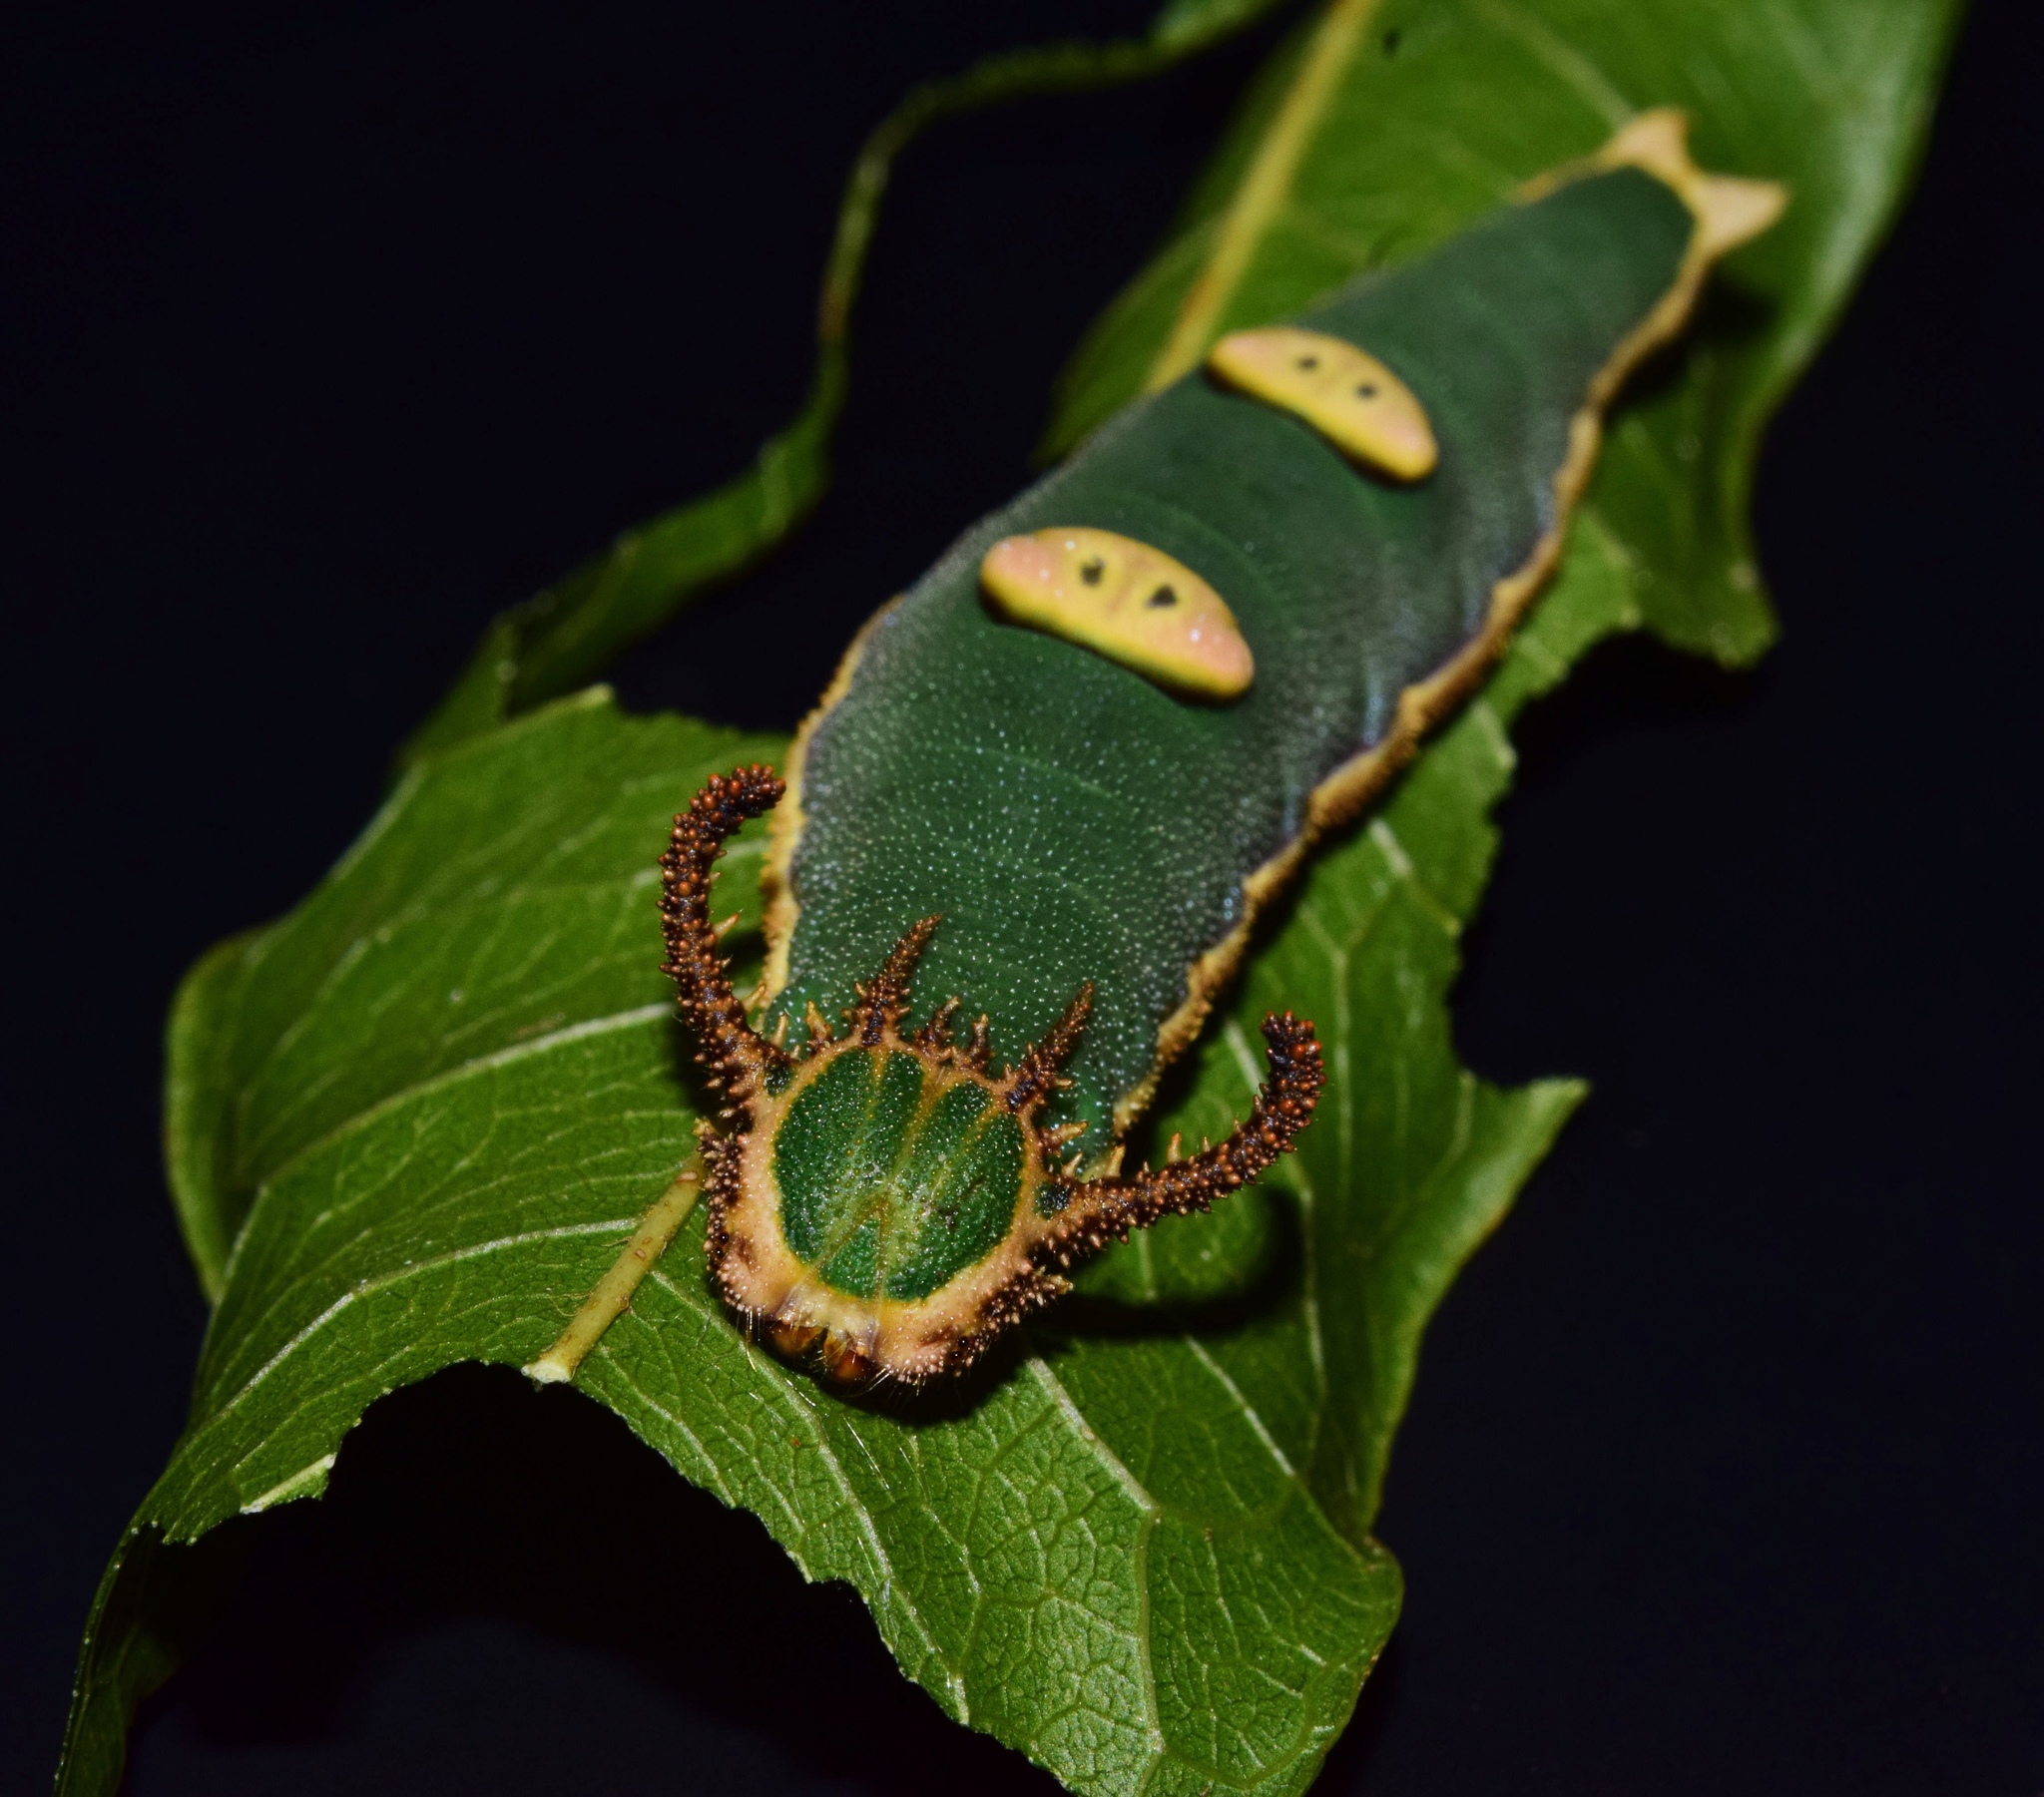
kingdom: Animalia
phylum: Arthropoda
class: Insecta
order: Lepidoptera
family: Nymphalidae
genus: Charaxes
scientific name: Charaxes wakefieldi
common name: Forest queen
